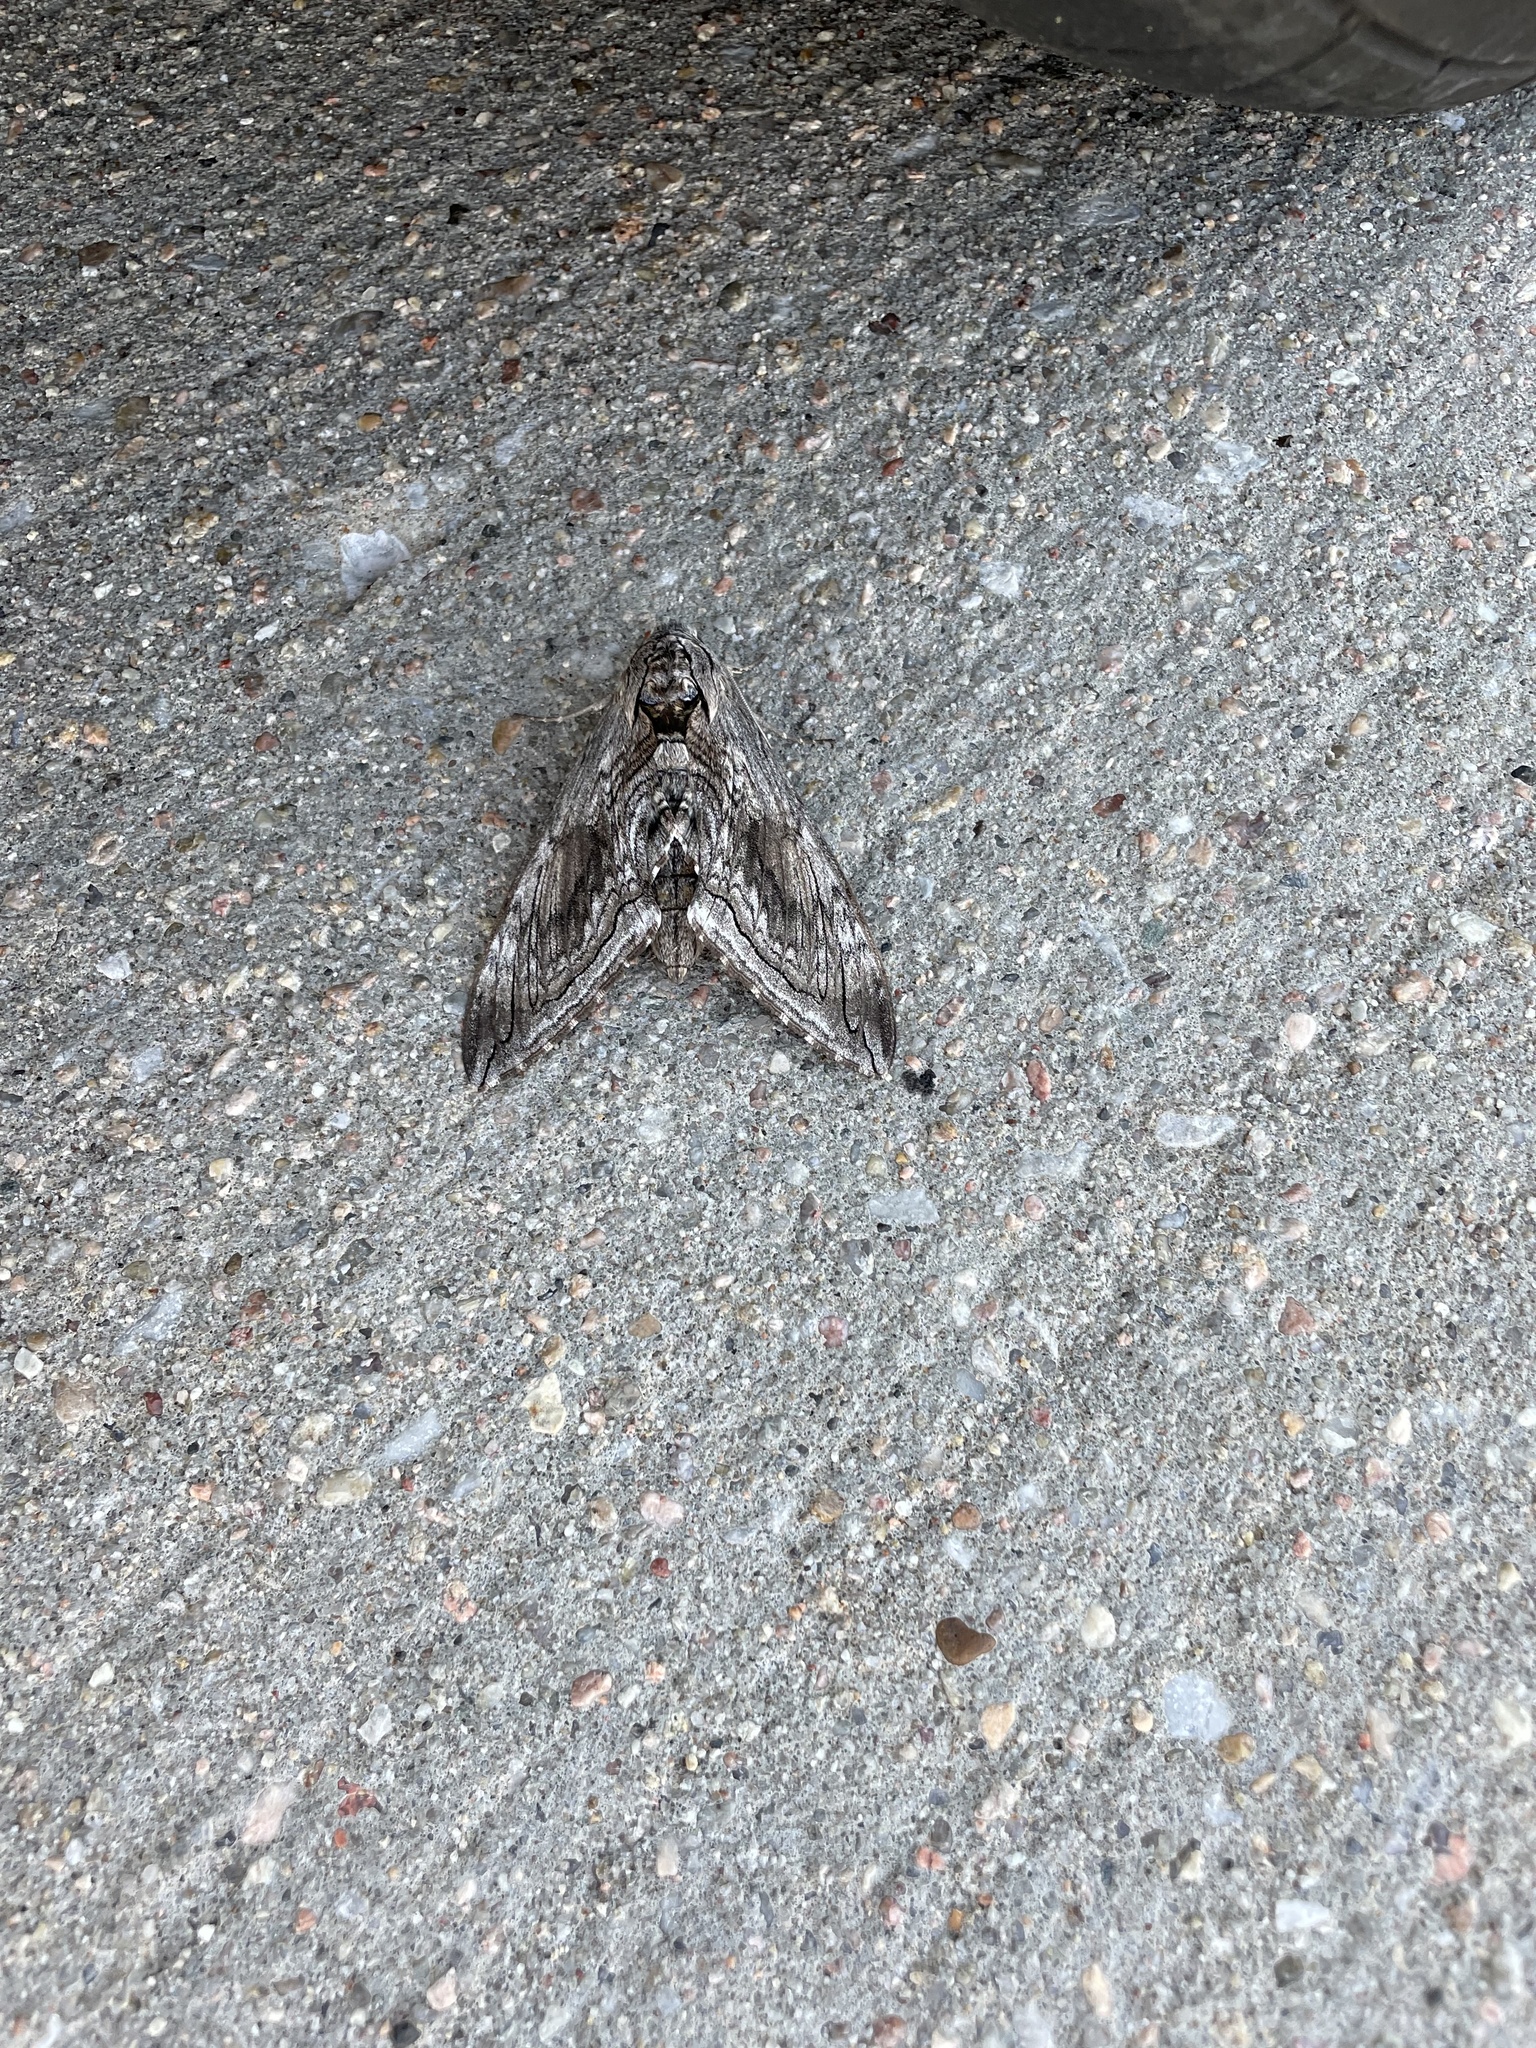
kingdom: Animalia
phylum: Arthropoda
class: Insecta
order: Lepidoptera
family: Sphingidae
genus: Manduca
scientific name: Manduca quinquemaculatus
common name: Five-spotted hawk-moth
